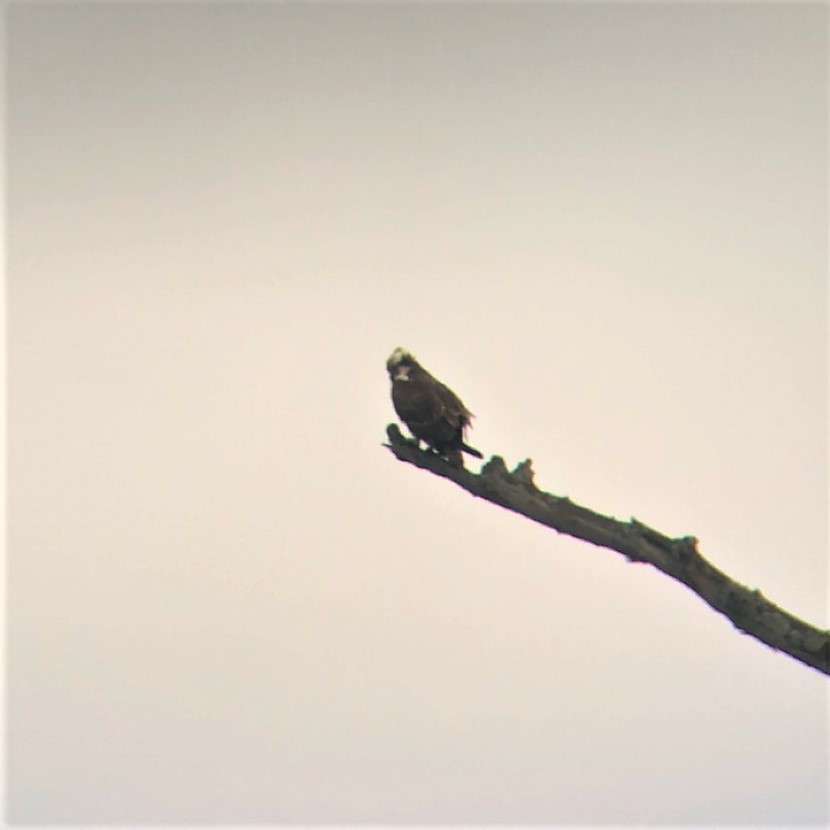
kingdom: Animalia
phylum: Chordata
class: Aves
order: Accipitriformes
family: Pandionidae
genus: Pandion
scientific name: Pandion haliaetus
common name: Osprey
